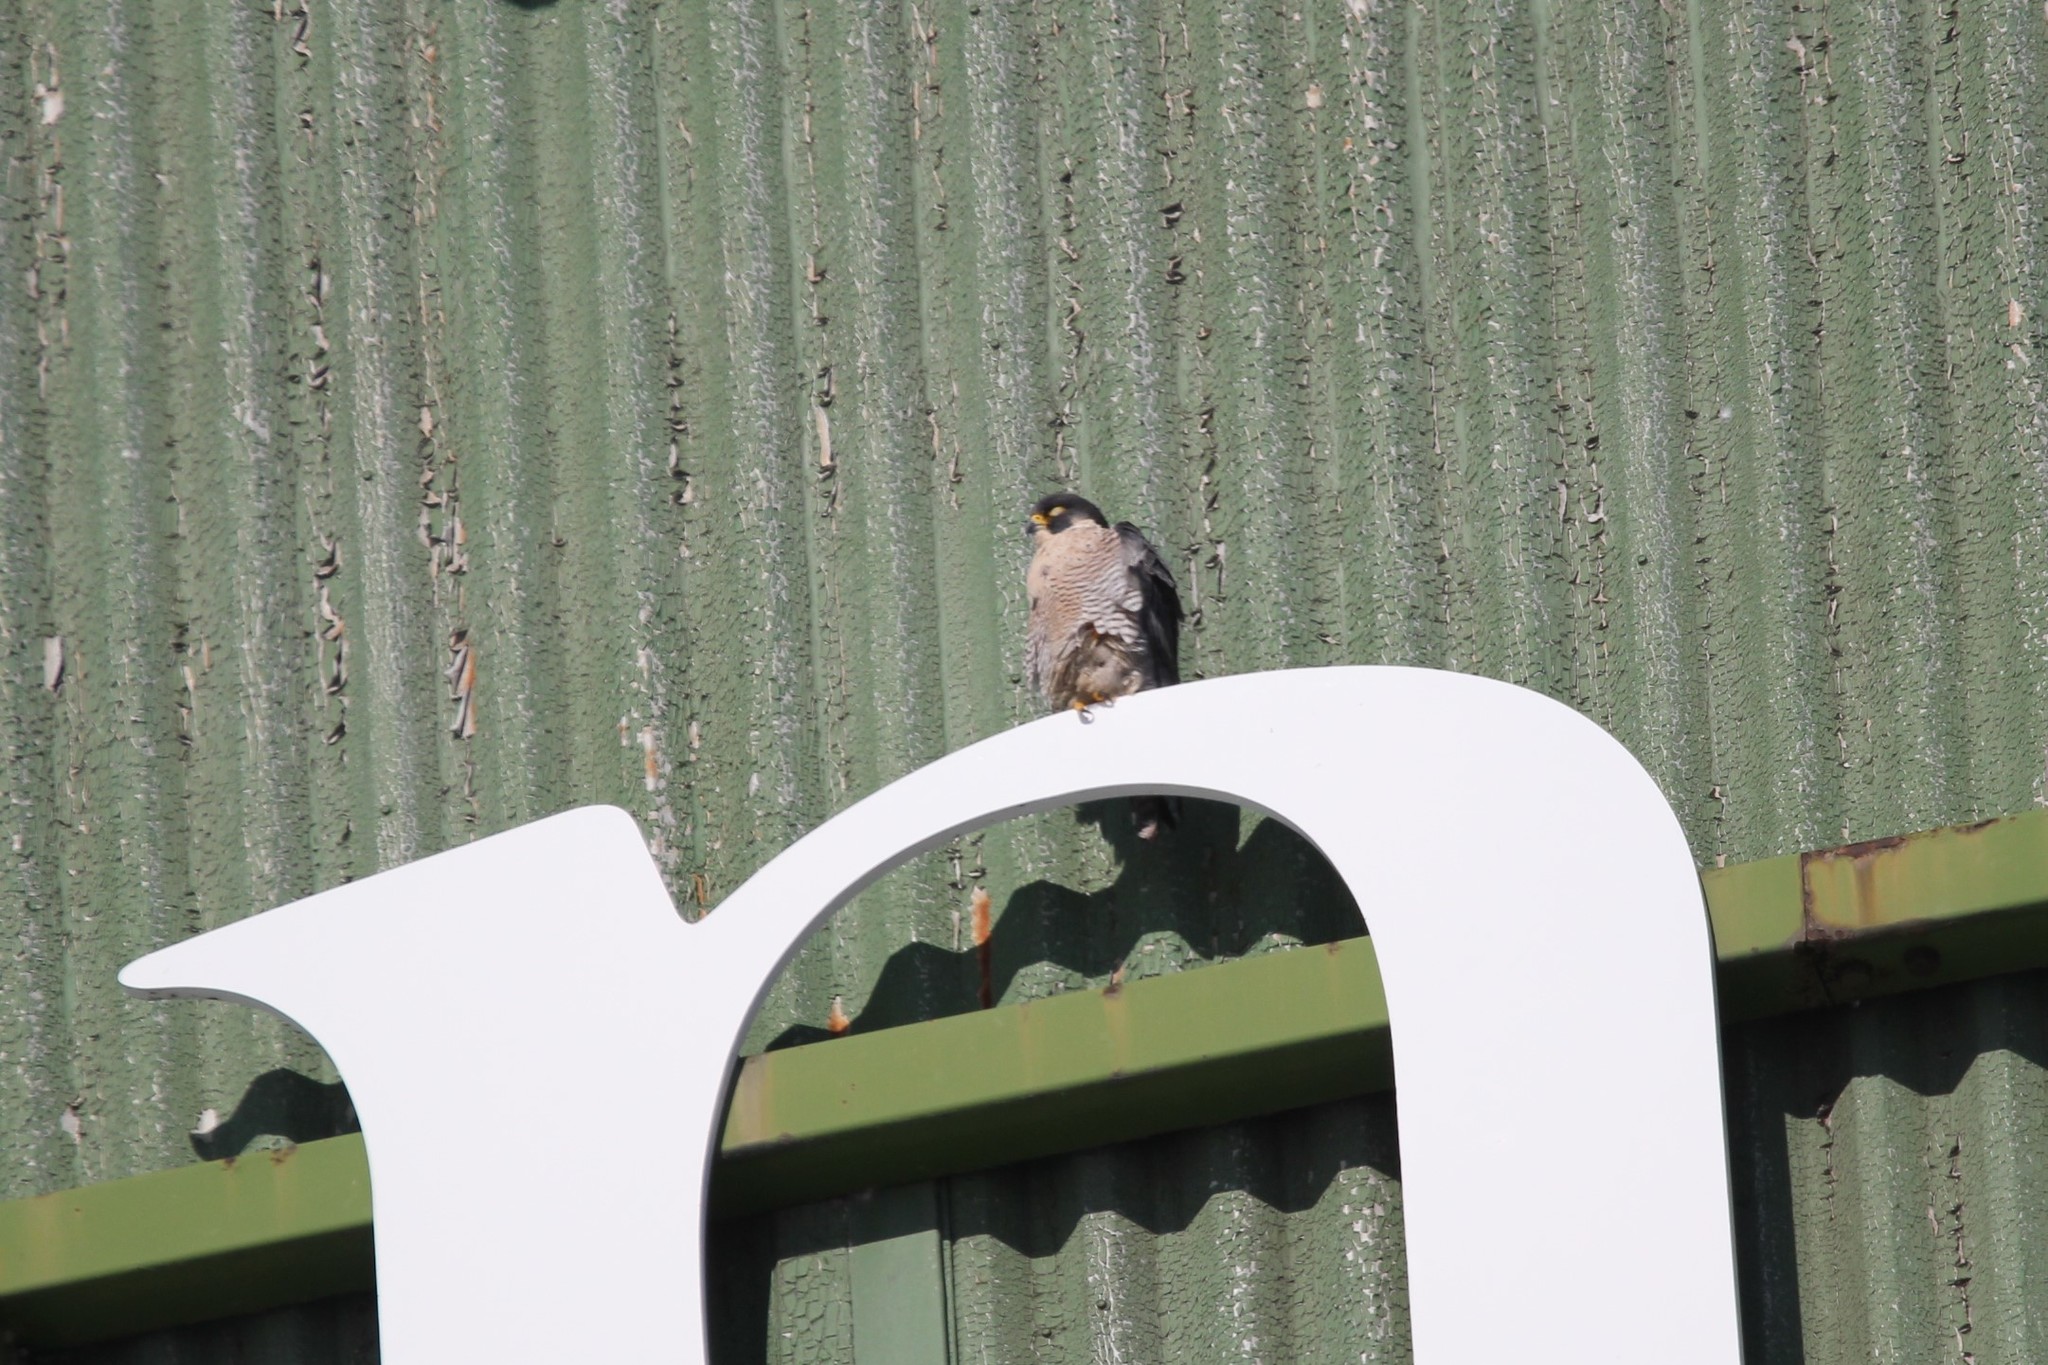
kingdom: Animalia
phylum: Chordata
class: Aves
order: Falconiformes
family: Falconidae
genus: Falco
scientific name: Falco peregrinus
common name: Peregrine falcon
